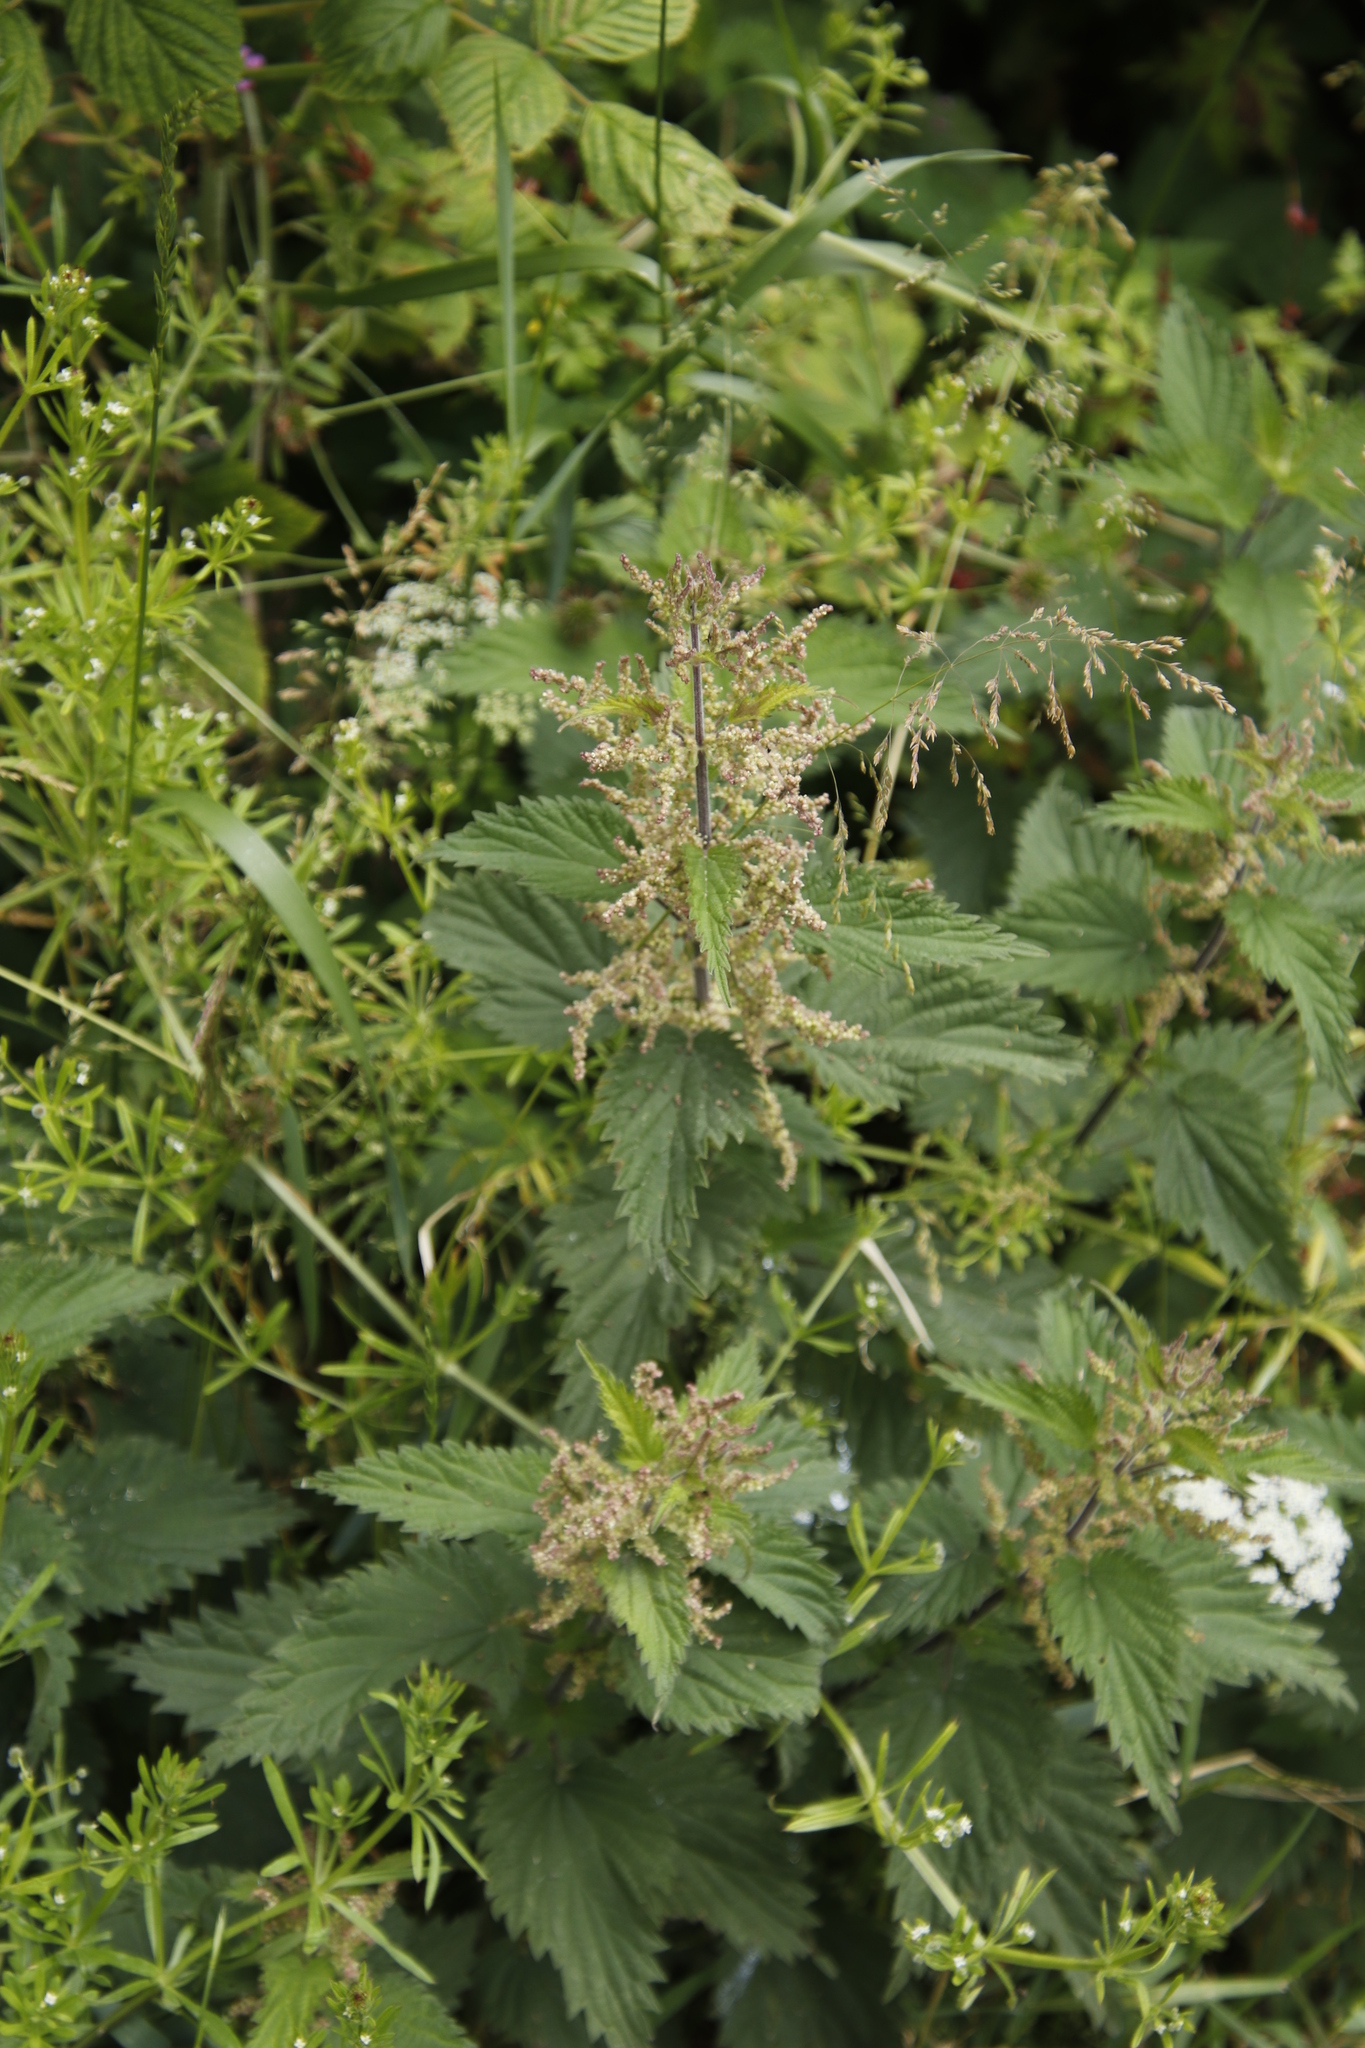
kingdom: Plantae
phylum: Tracheophyta
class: Magnoliopsida
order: Rosales
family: Urticaceae
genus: Urtica
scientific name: Urtica dioica
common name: Common nettle
